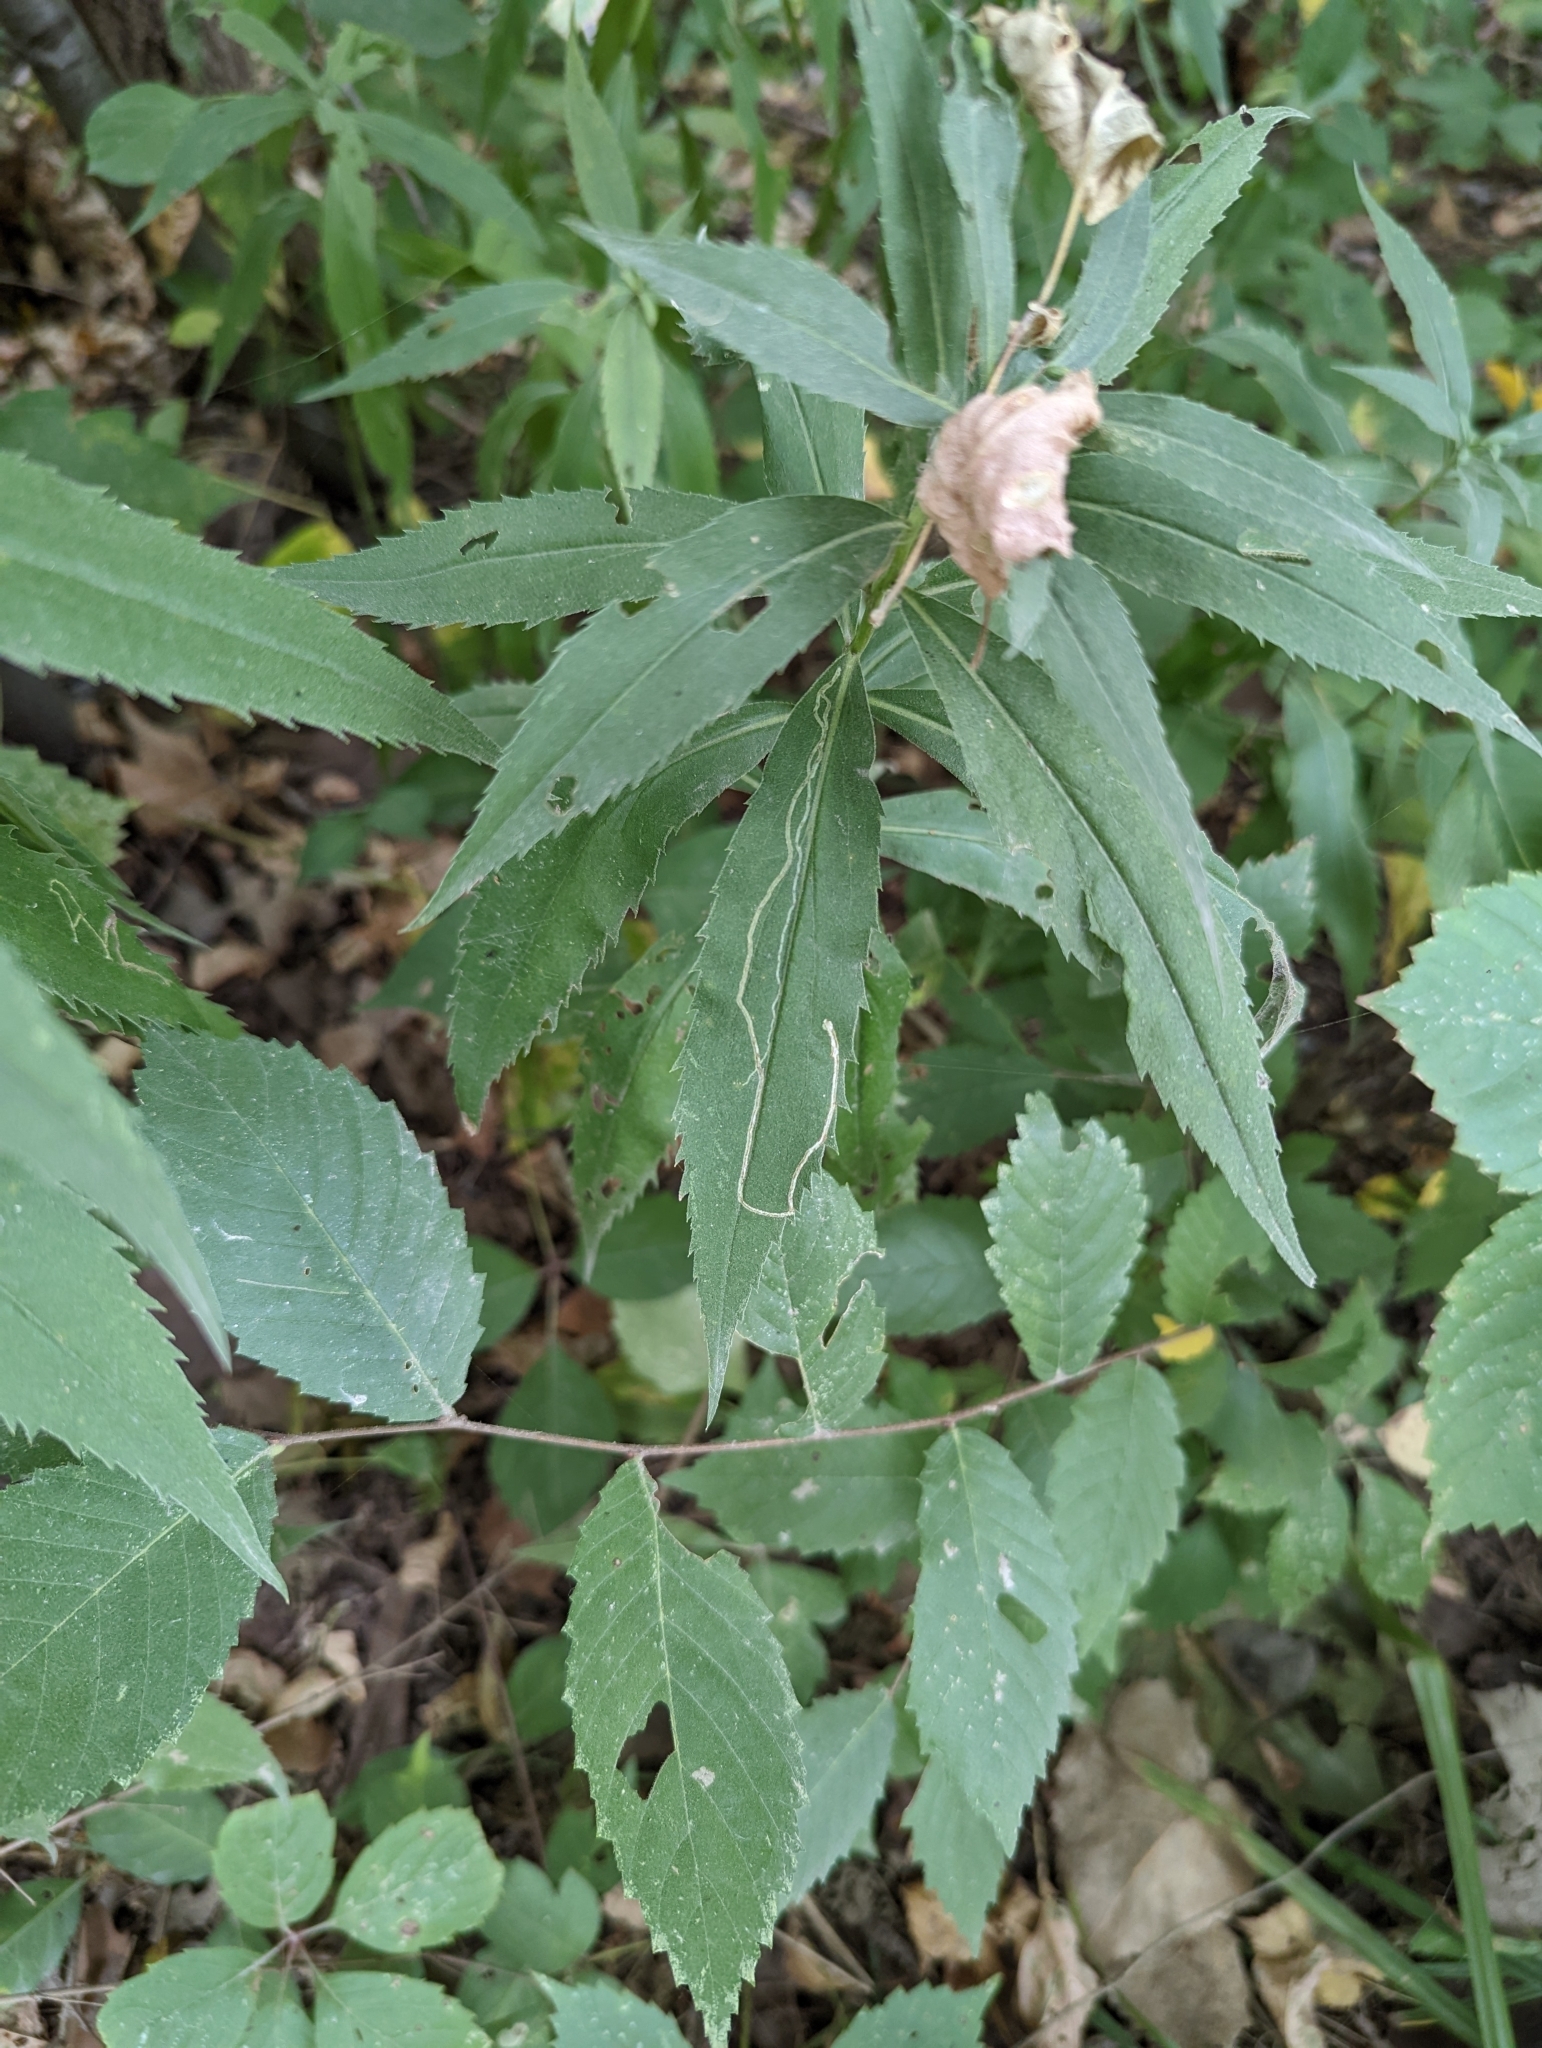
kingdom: Animalia
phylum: Arthropoda
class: Insecta
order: Diptera
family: Agromyzidae
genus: Ophiomyia
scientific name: Ophiomyia maura
